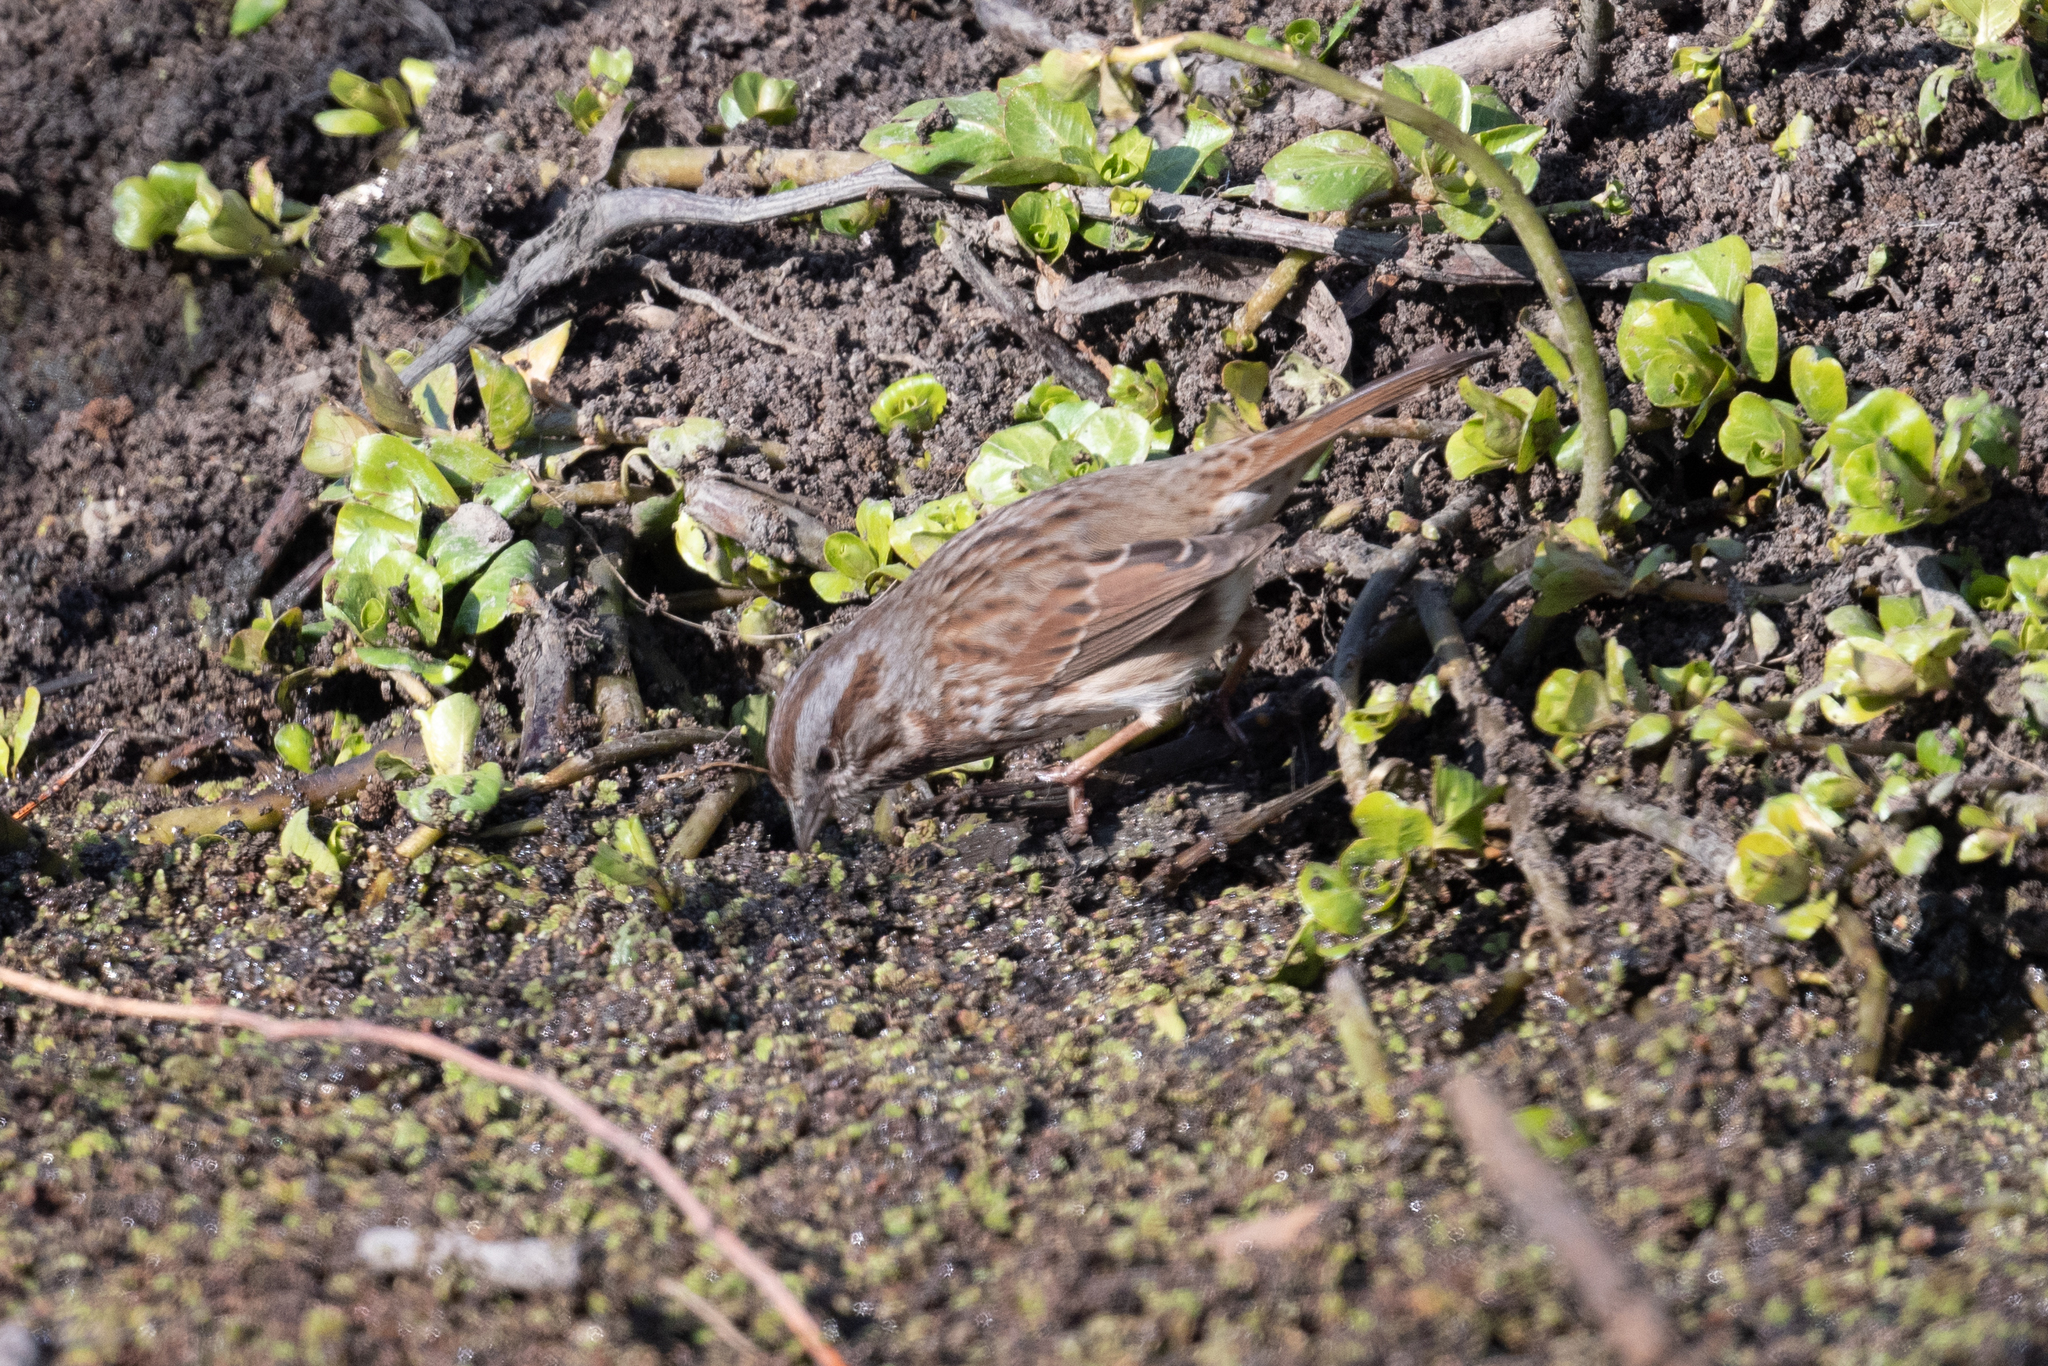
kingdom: Animalia
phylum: Chordata
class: Aves
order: Passeriformes
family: Passerellidae
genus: Melospiza
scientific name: Melospiza melodia
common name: Song sparrow
